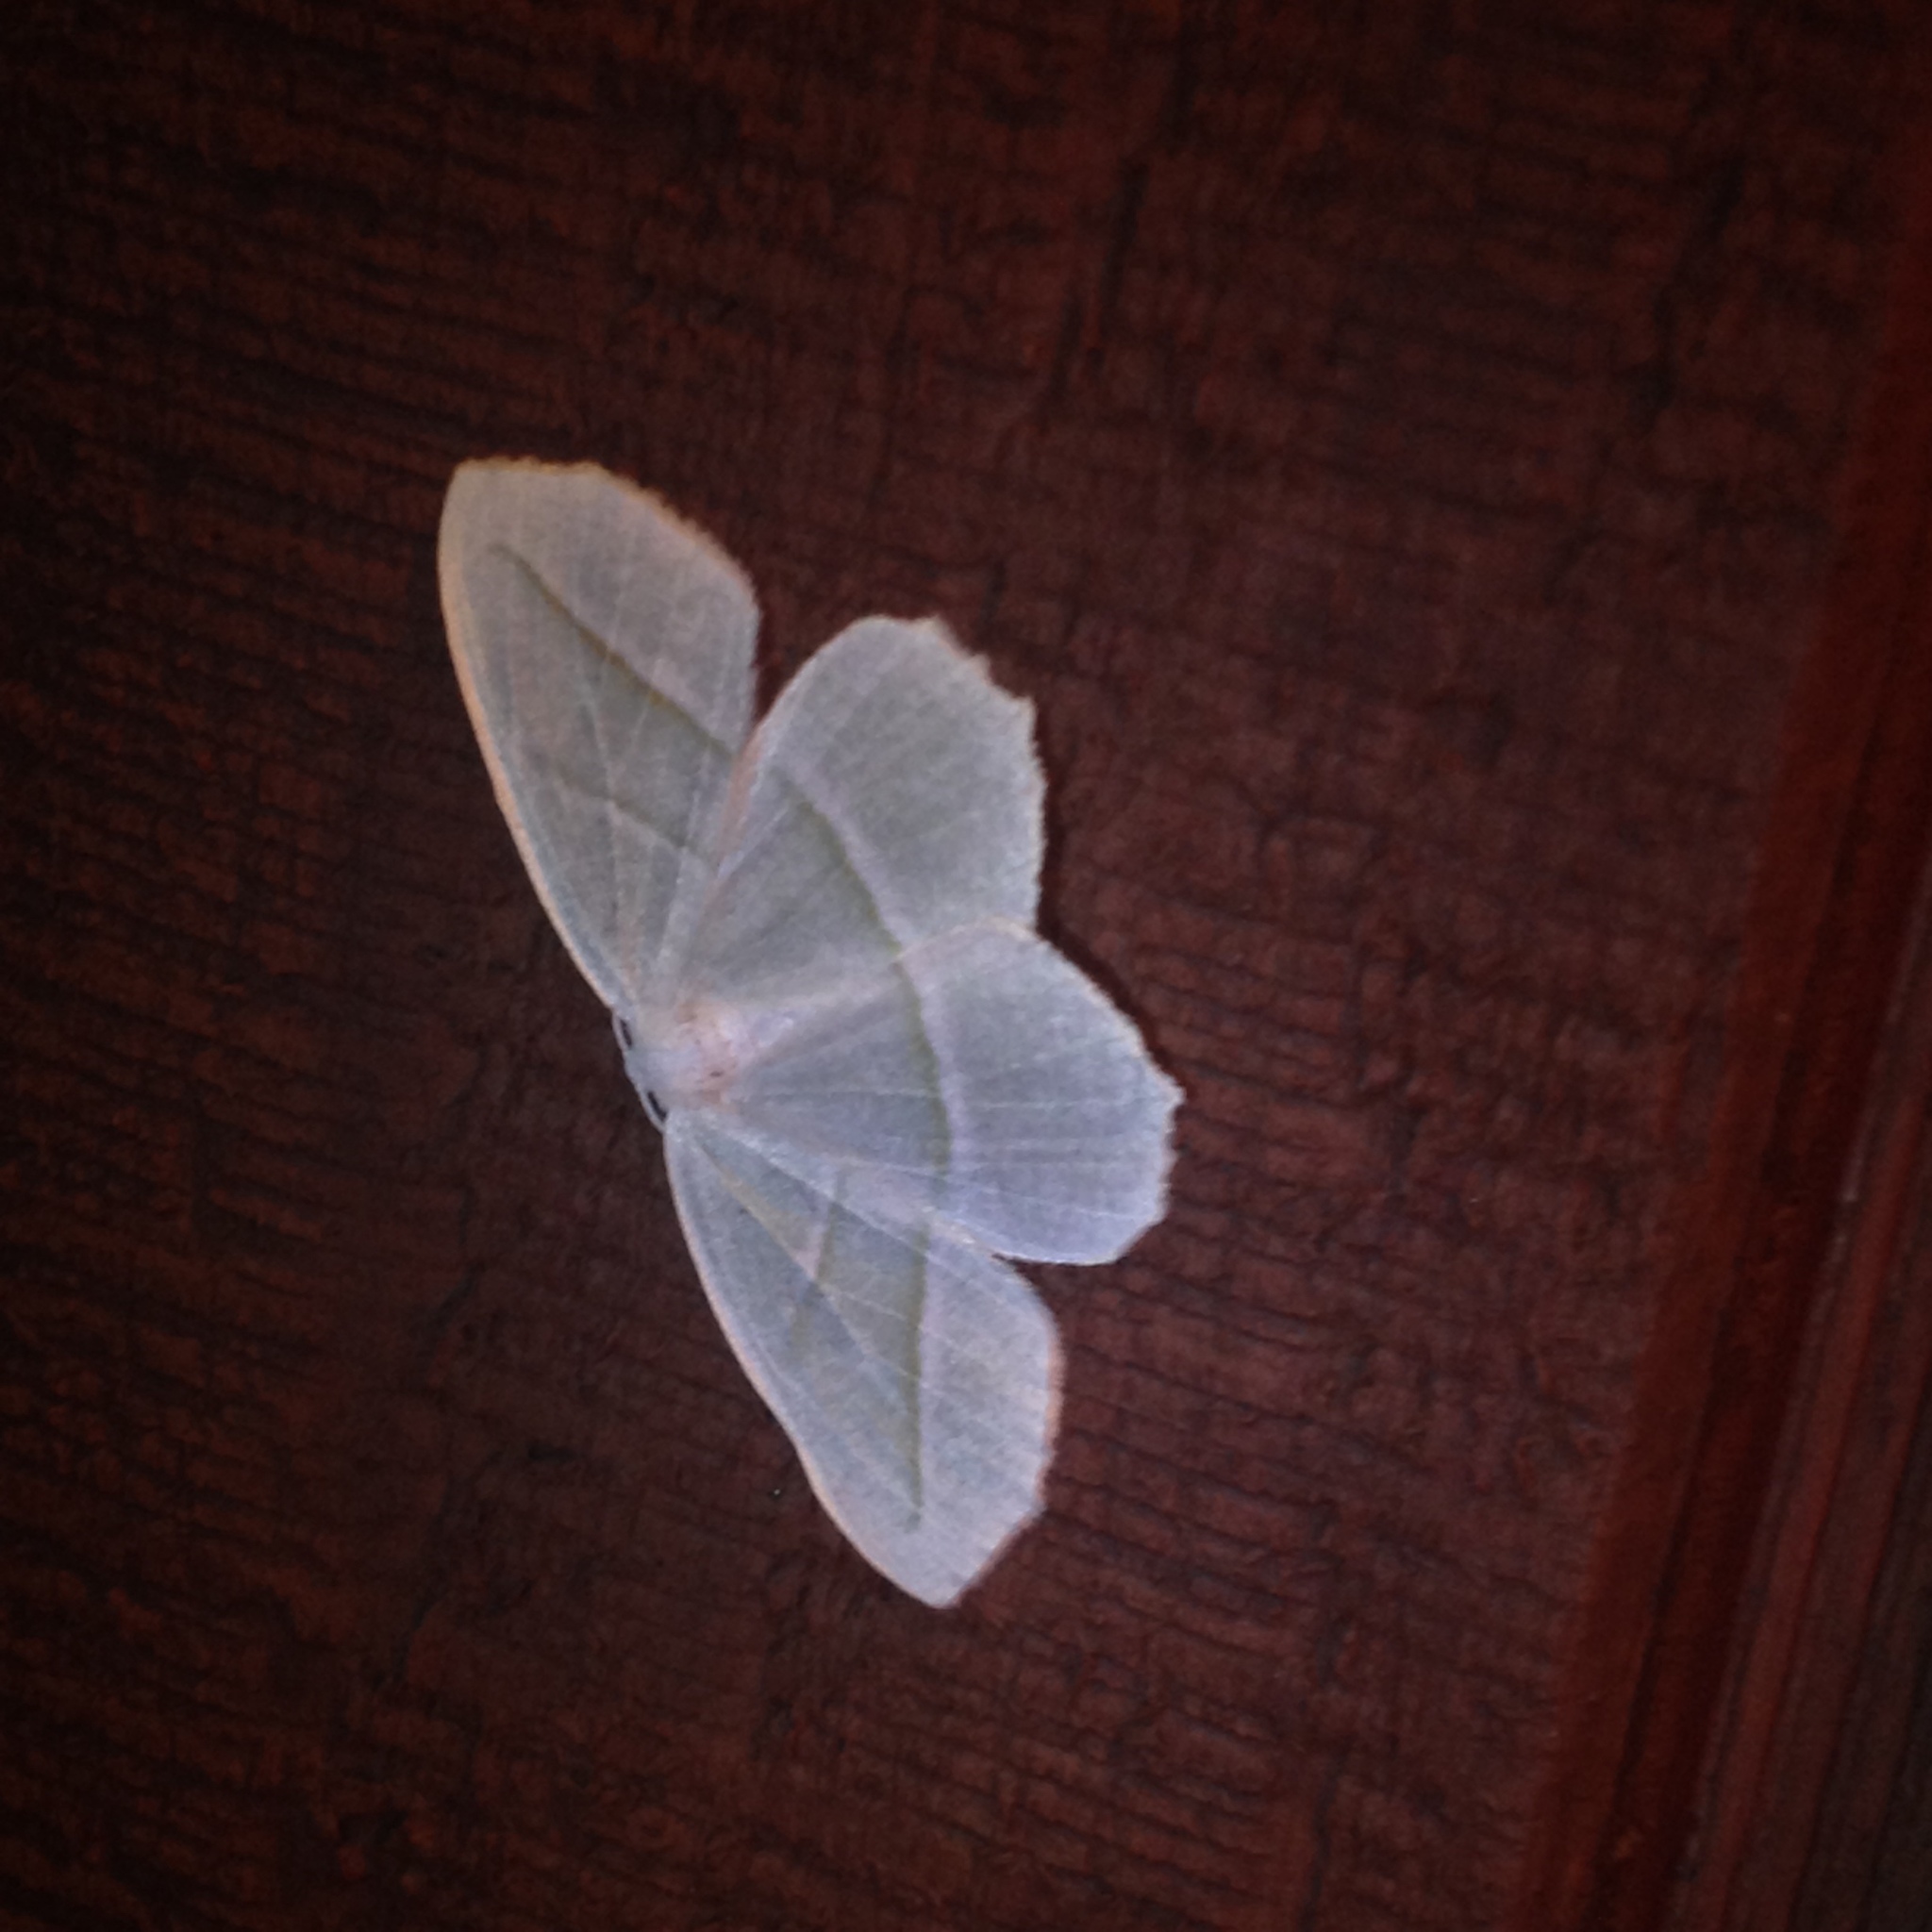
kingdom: Animalia
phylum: Arthropoda
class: Insecta
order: Lepidoptera
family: Geometridae
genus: Campaea
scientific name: Campaea perlata
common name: Fringed looper
